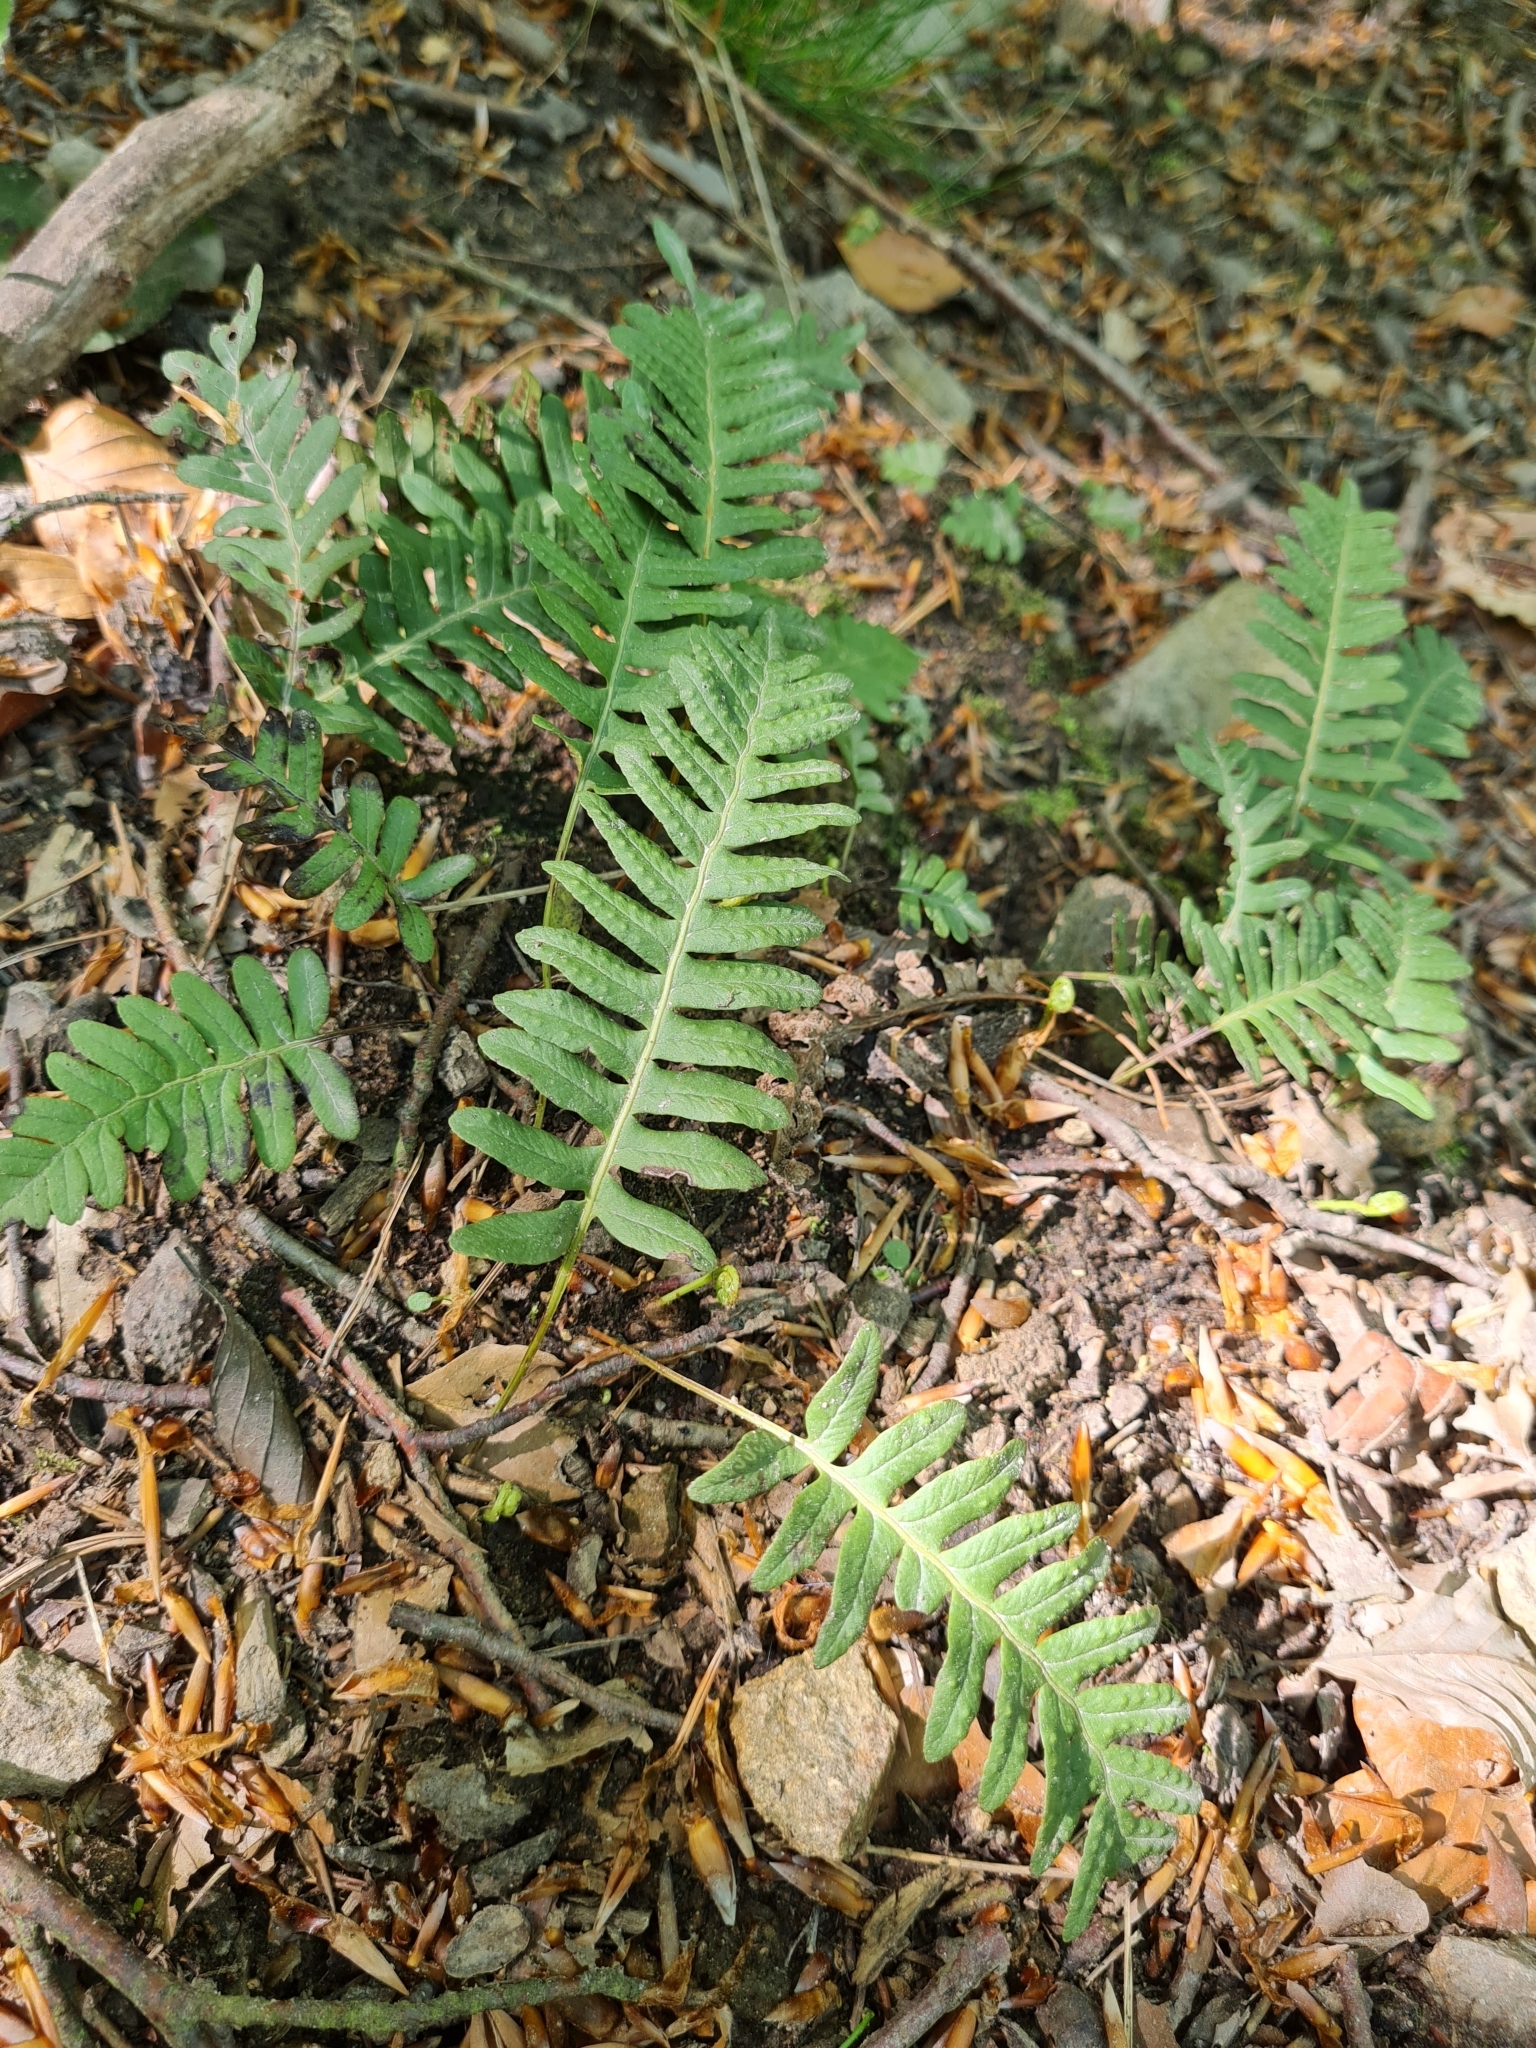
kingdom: Plantae
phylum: Tracheophyta
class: Polypodiopsida
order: Polypodiales
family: Polypodiaceae
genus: Polypodium
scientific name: Polypodium vulgare
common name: Common polypody
